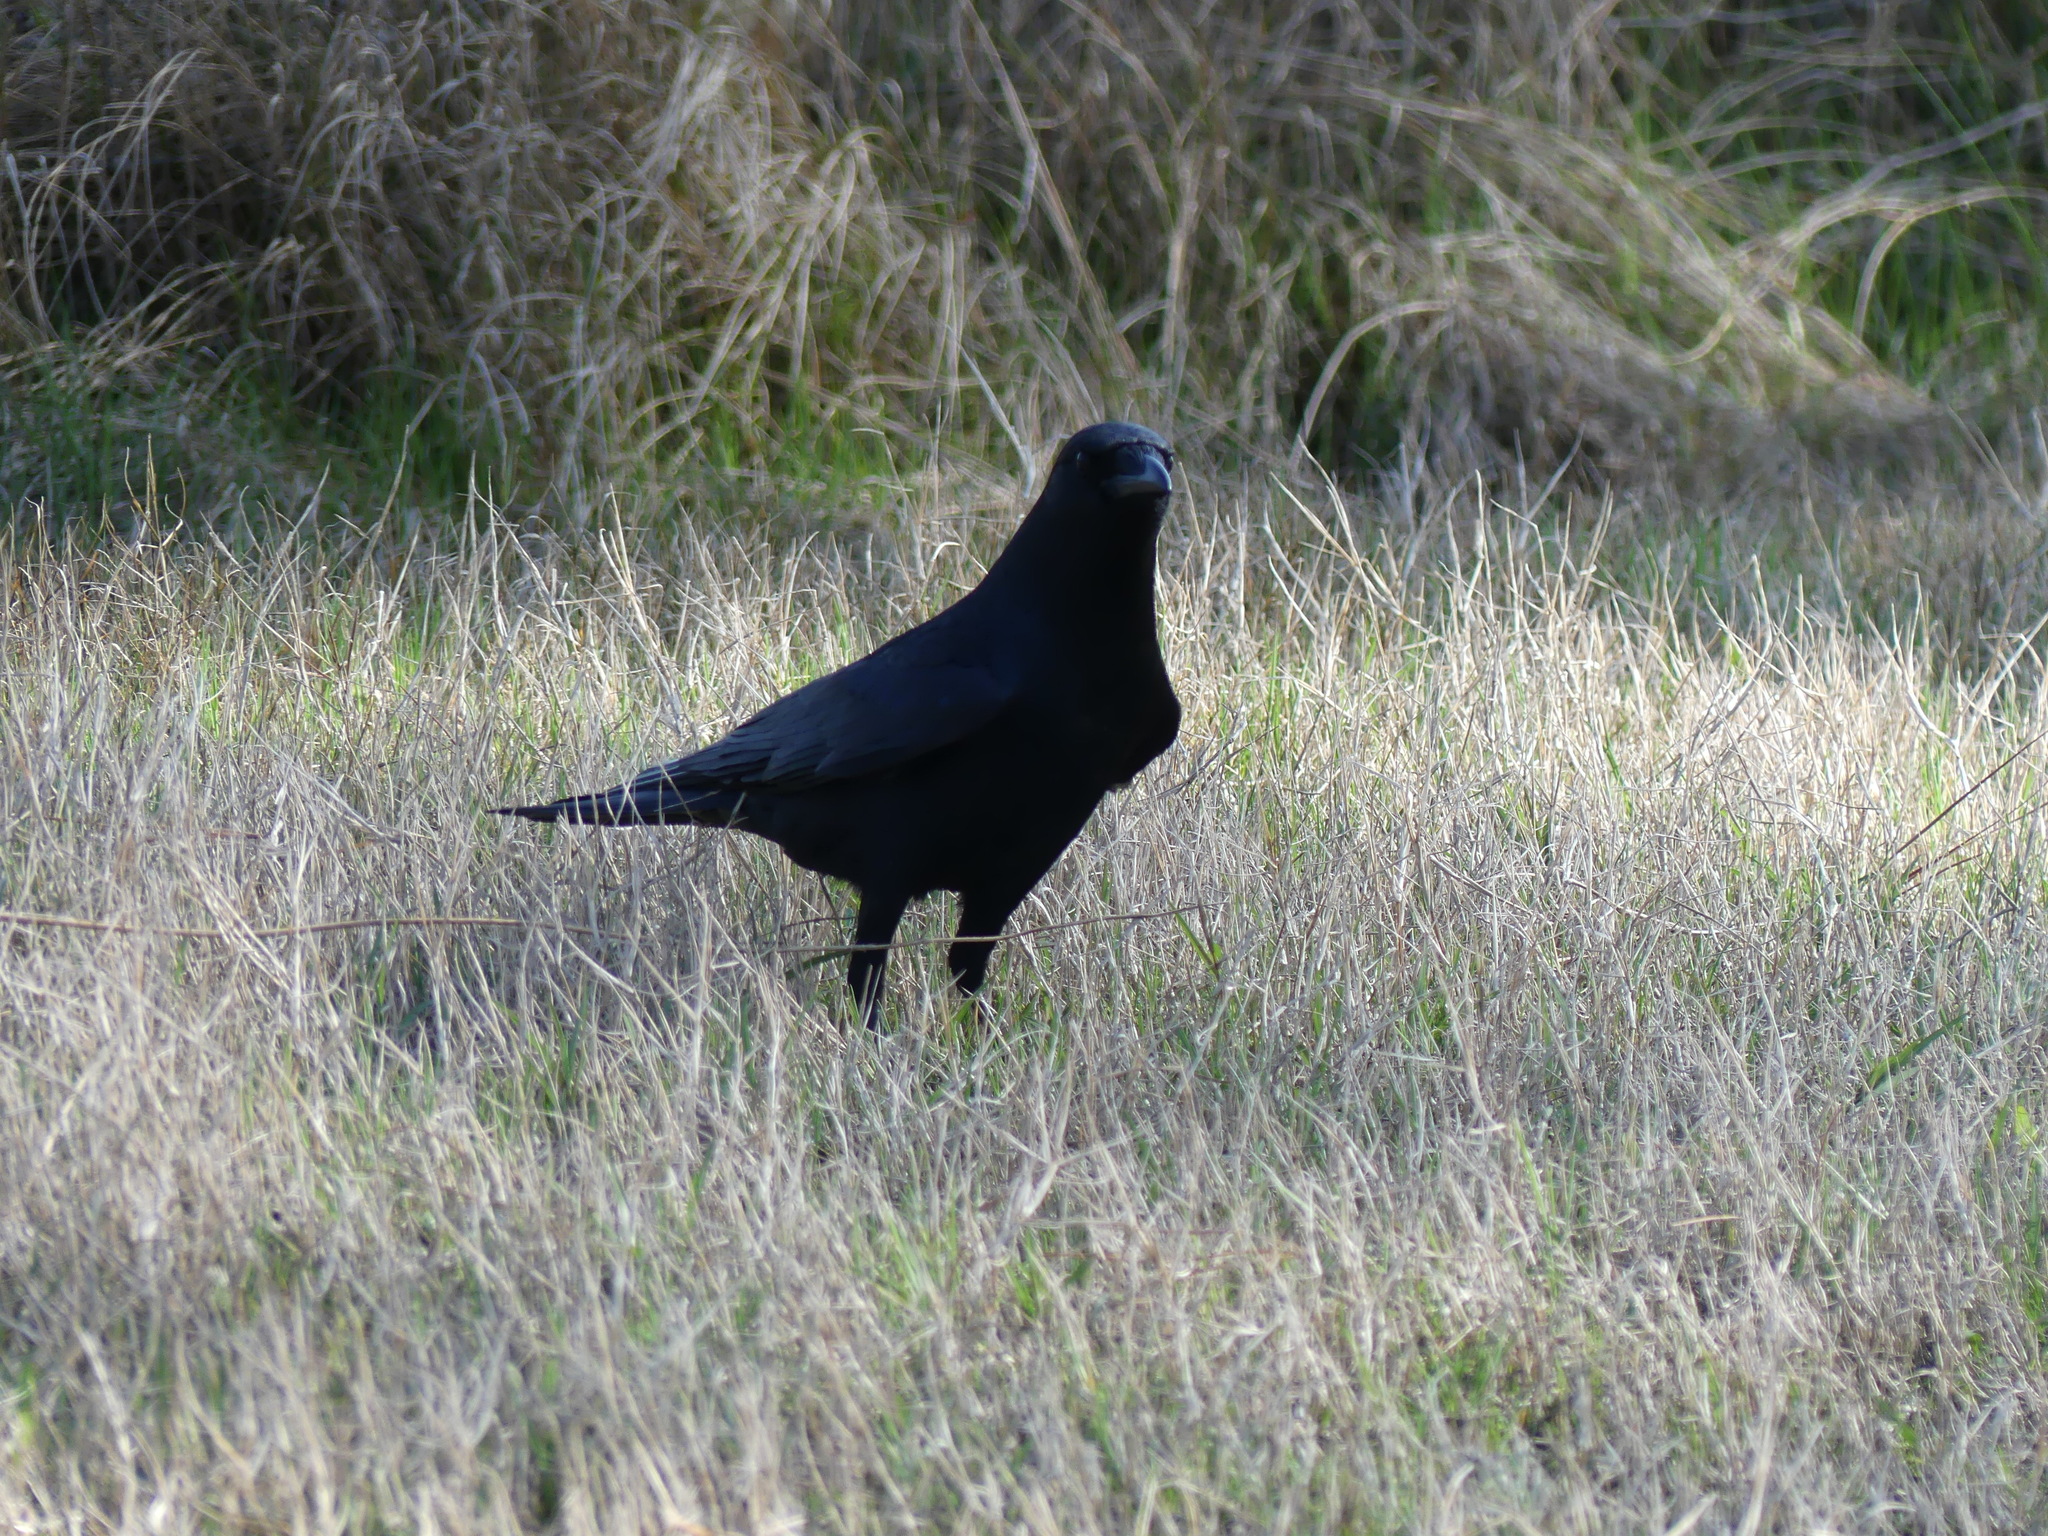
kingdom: Animalia
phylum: Chordata
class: Aves
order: Passeriformes
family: Corvidae
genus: Corvus
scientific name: Corvus
